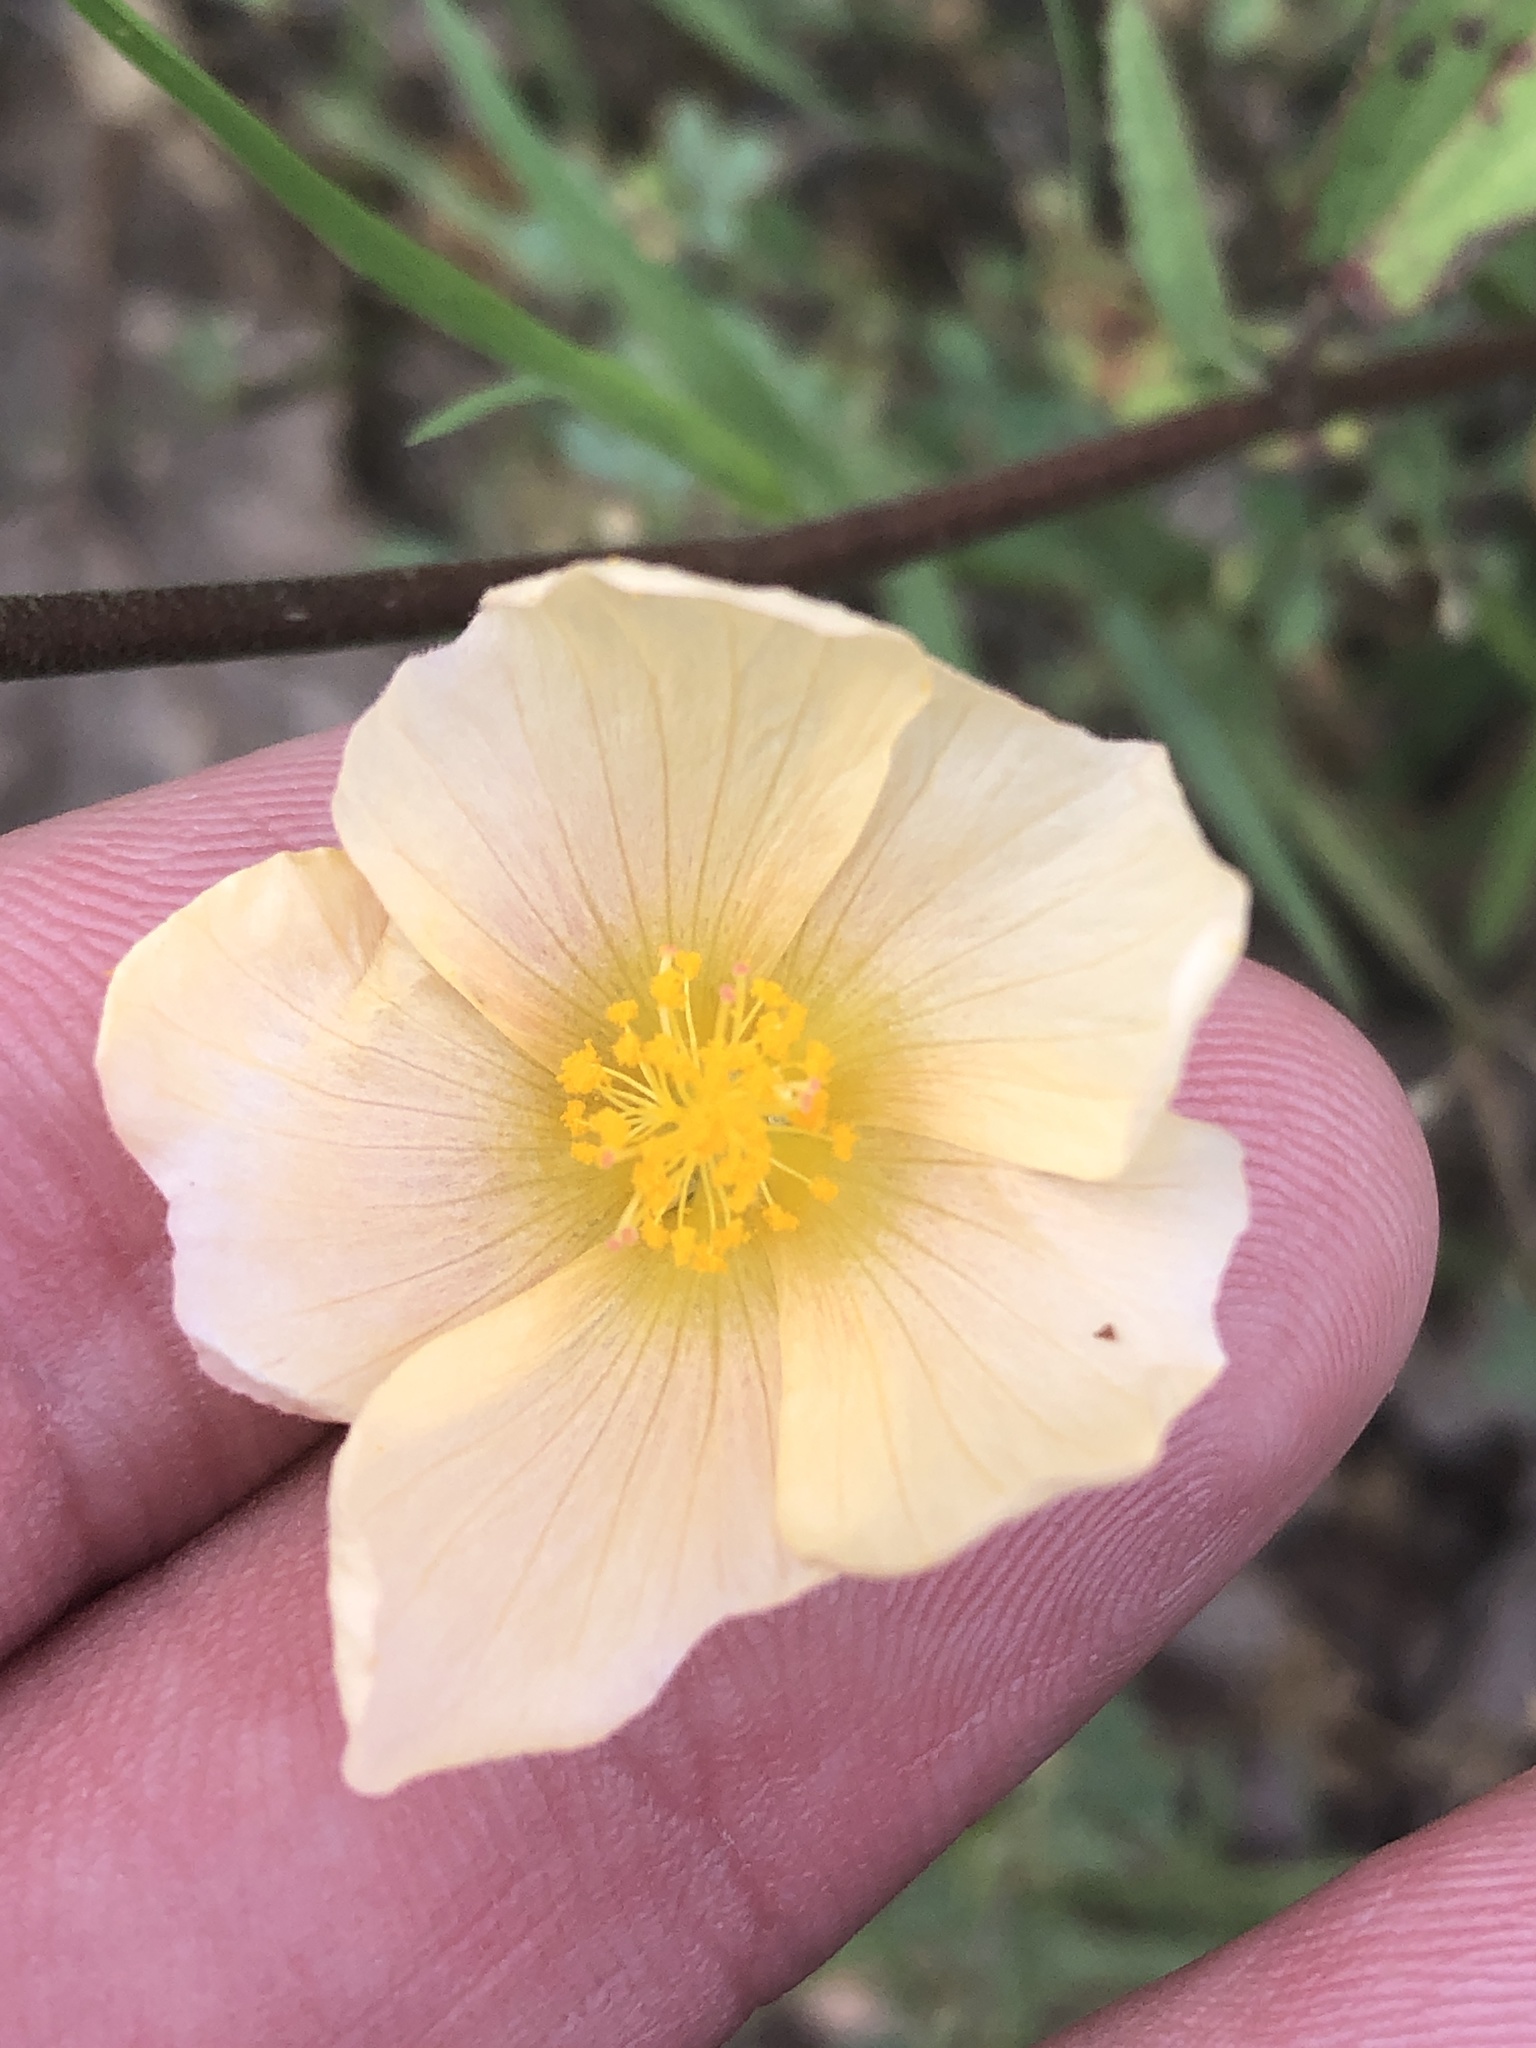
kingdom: Plantae
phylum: Tracheophyta
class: Magnoliopsida
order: Malvales
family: Malvaceae
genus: Sida
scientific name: Sida lindheimeri
